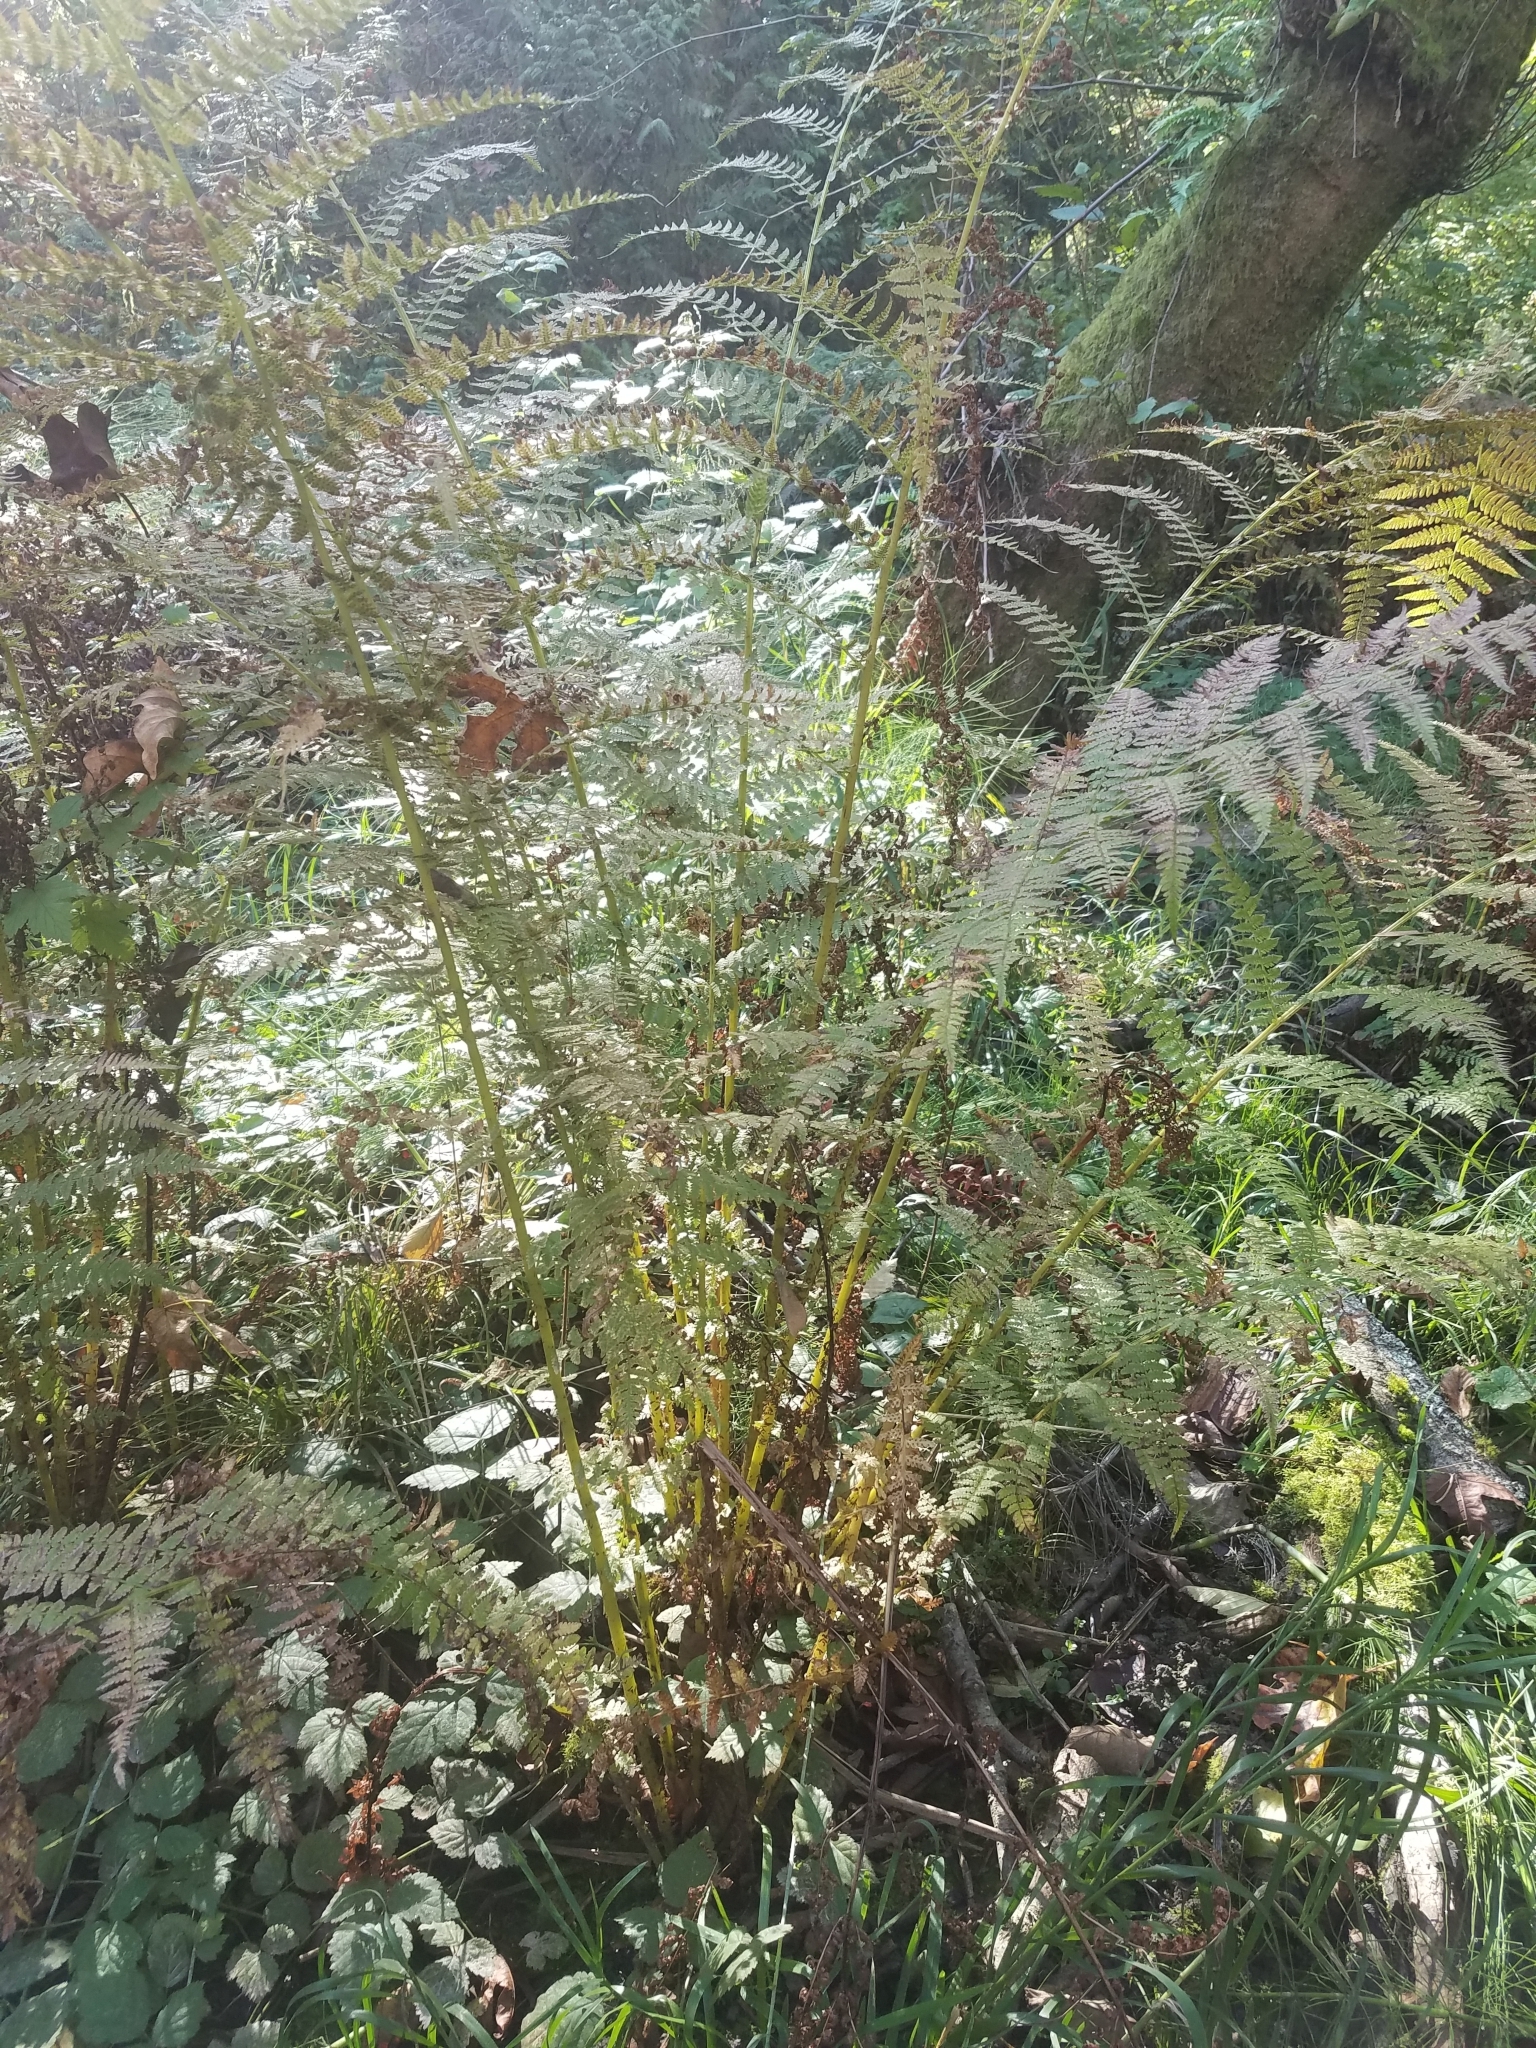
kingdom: Plantae
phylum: Tracheophyta
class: Polypodiopsida
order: Polypodiales
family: Athyriaceae
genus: Athyrium
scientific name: Athyrium filix-femina
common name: Lady fern
